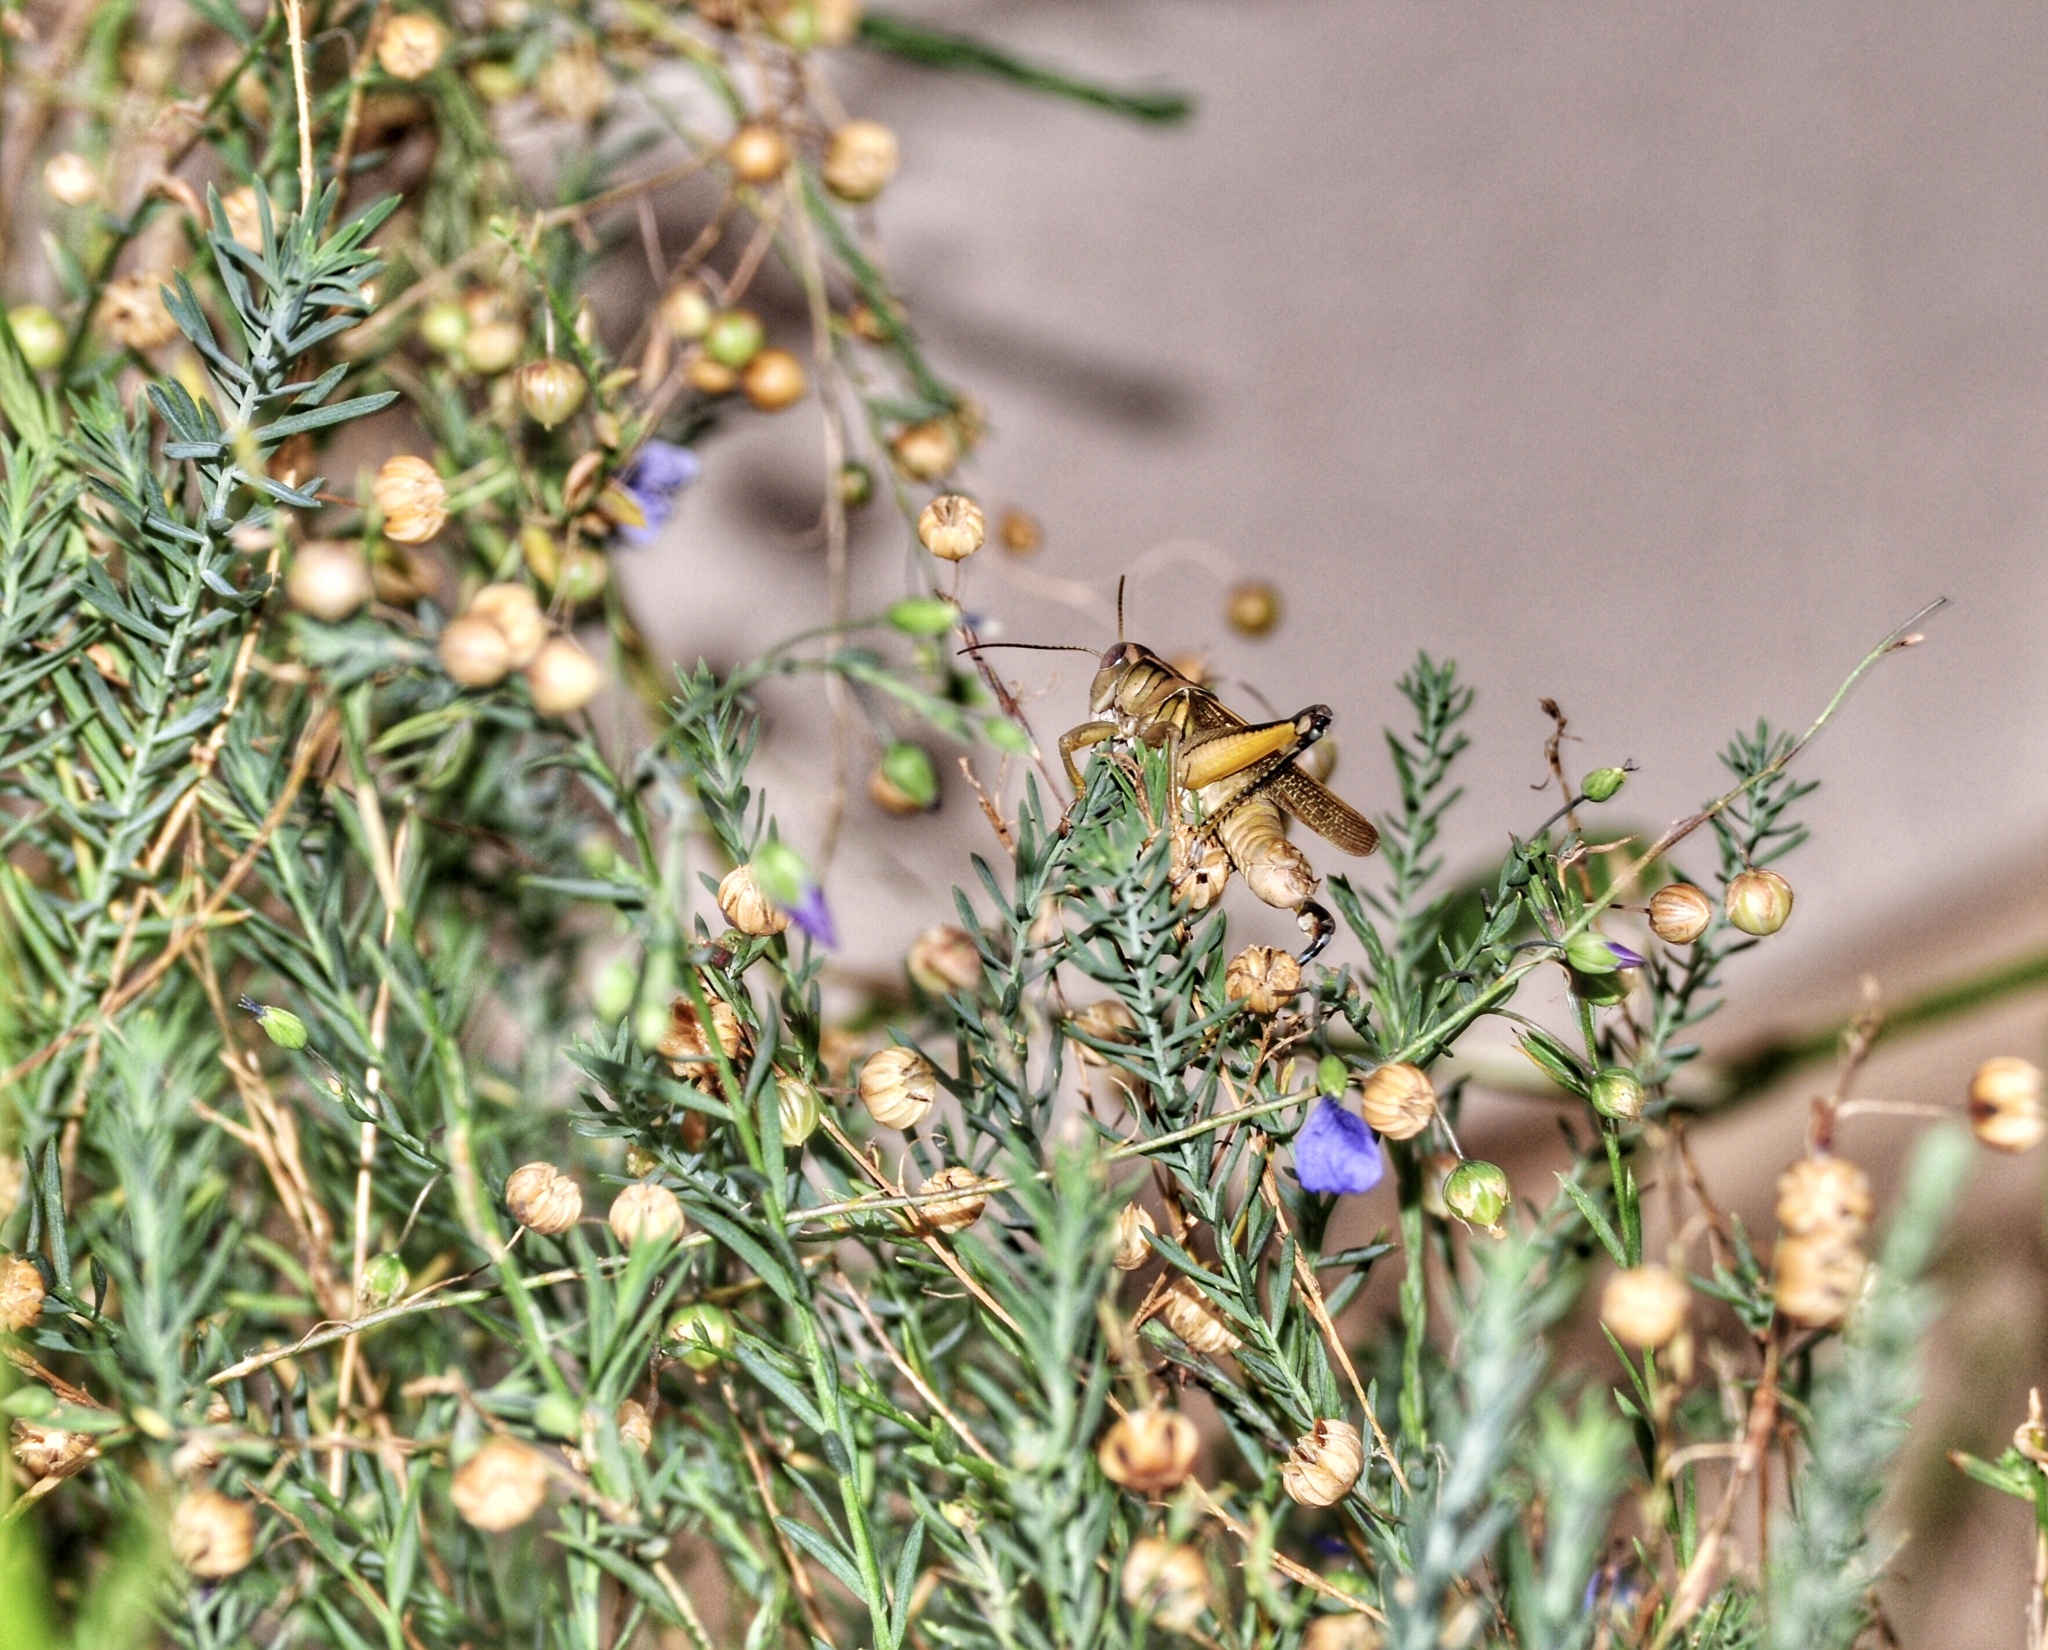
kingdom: Animalia
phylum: Arthropoda
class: Insecta
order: Orthoptera
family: Acrididae
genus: Melanoplus
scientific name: Melanoplus bivittatus
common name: Two-striped grasshopper
